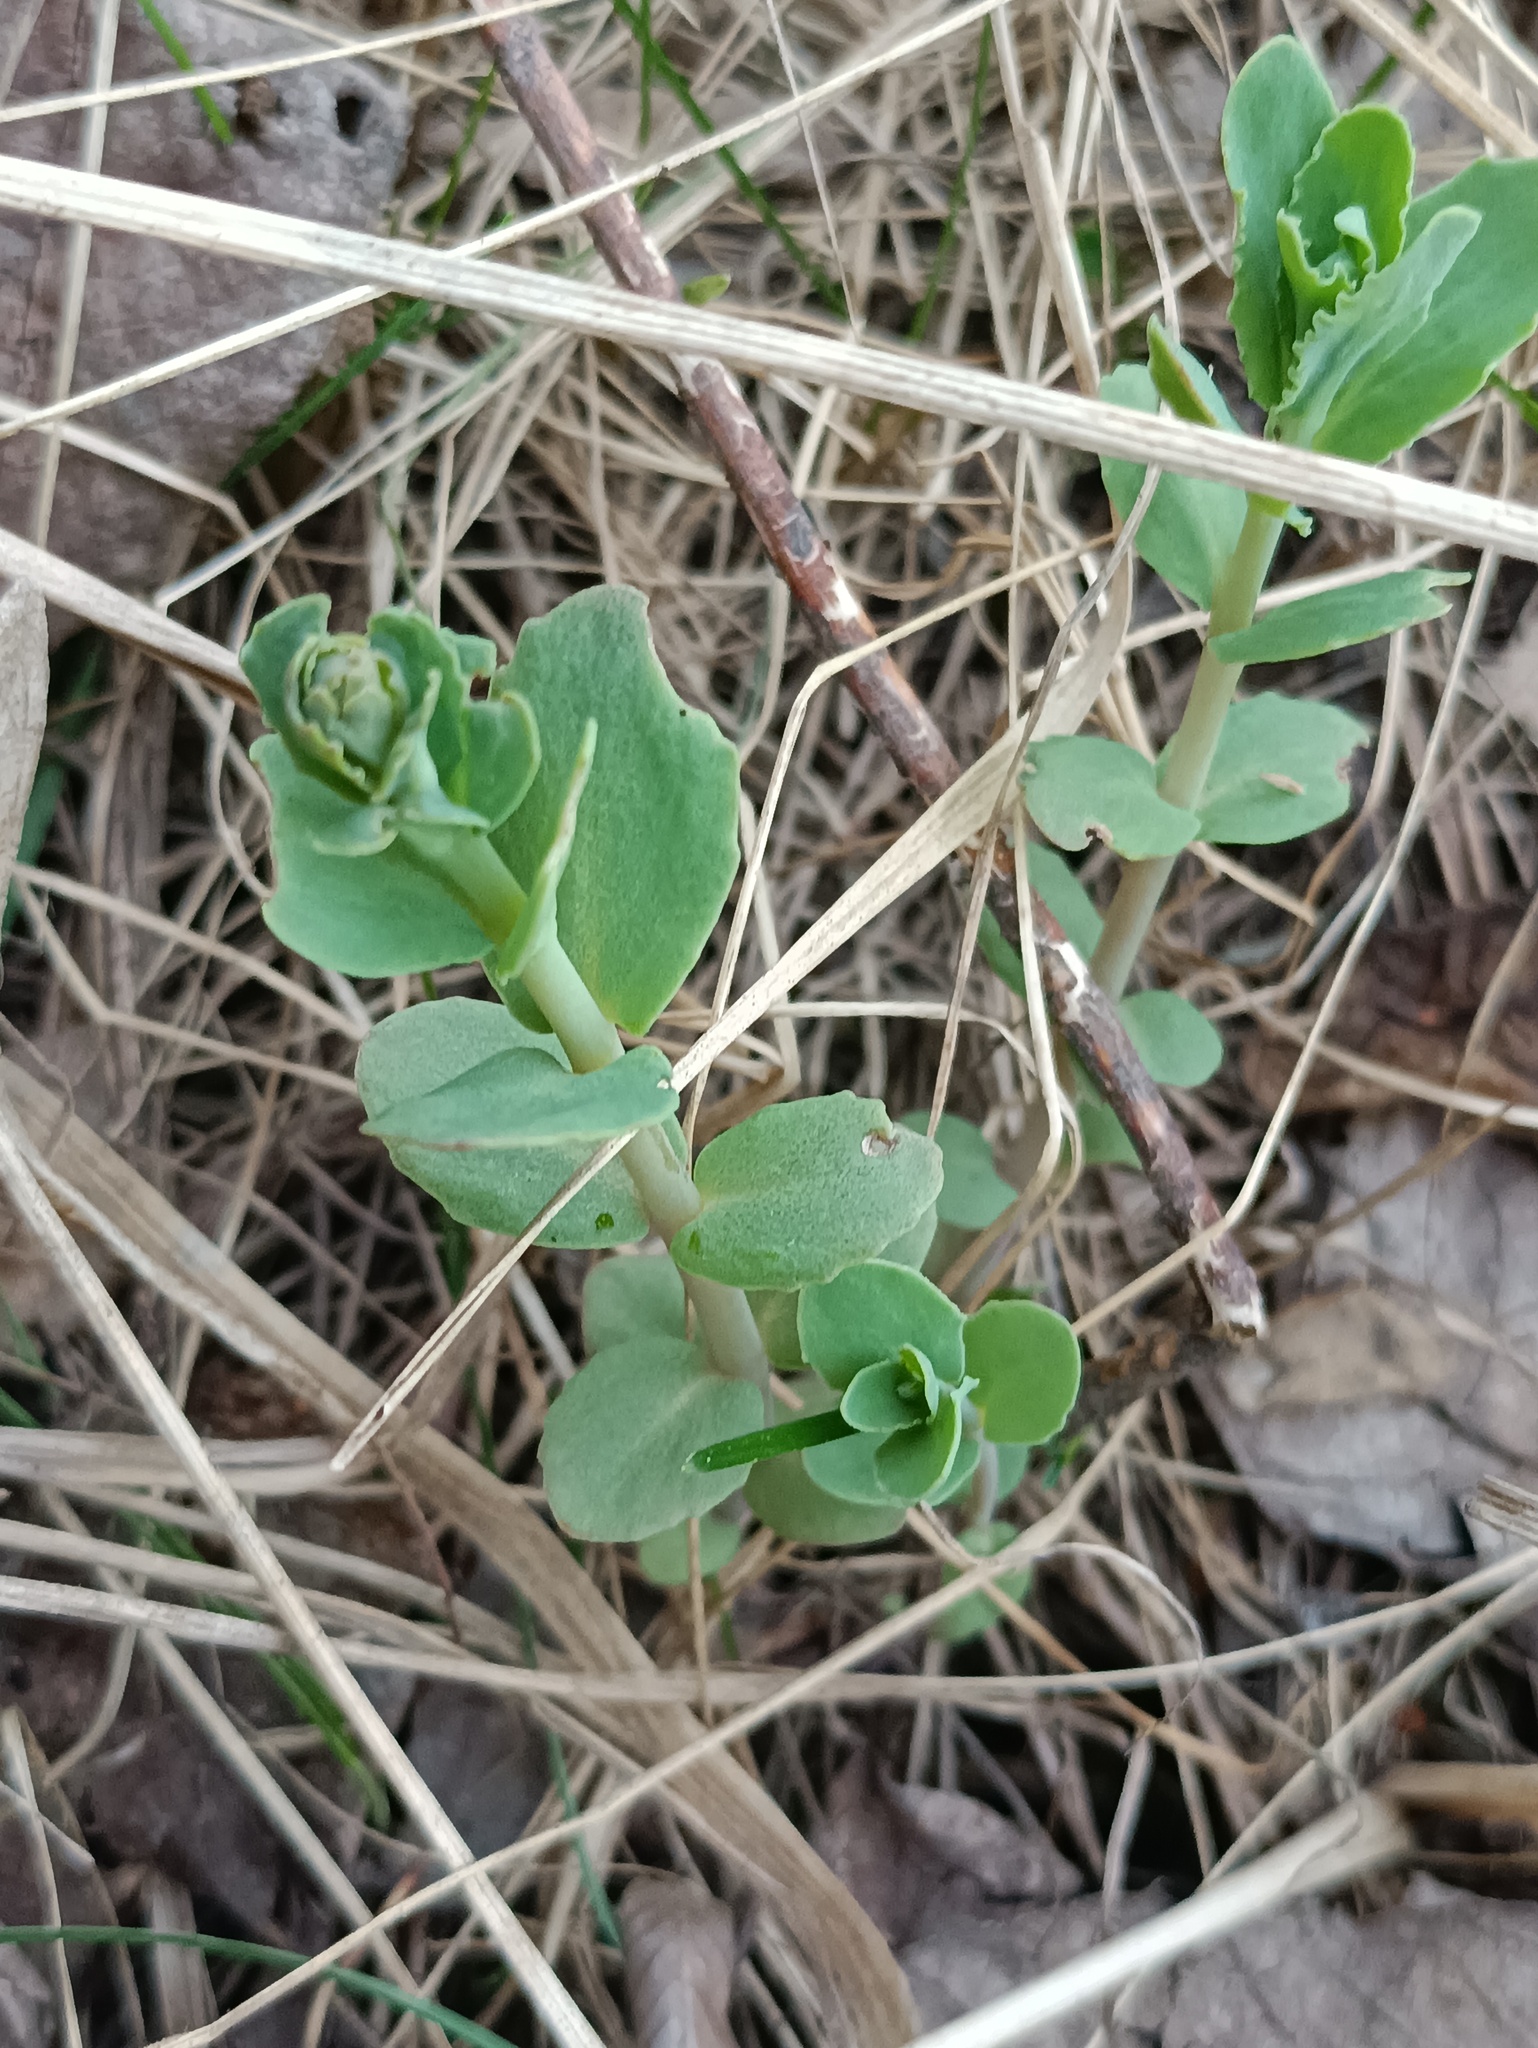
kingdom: Plantae
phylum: Tracheophyta
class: Magnoliopsida
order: Saxifragales
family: Crassulaceae
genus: Hylotelephium
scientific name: Hylotelephium maximum
